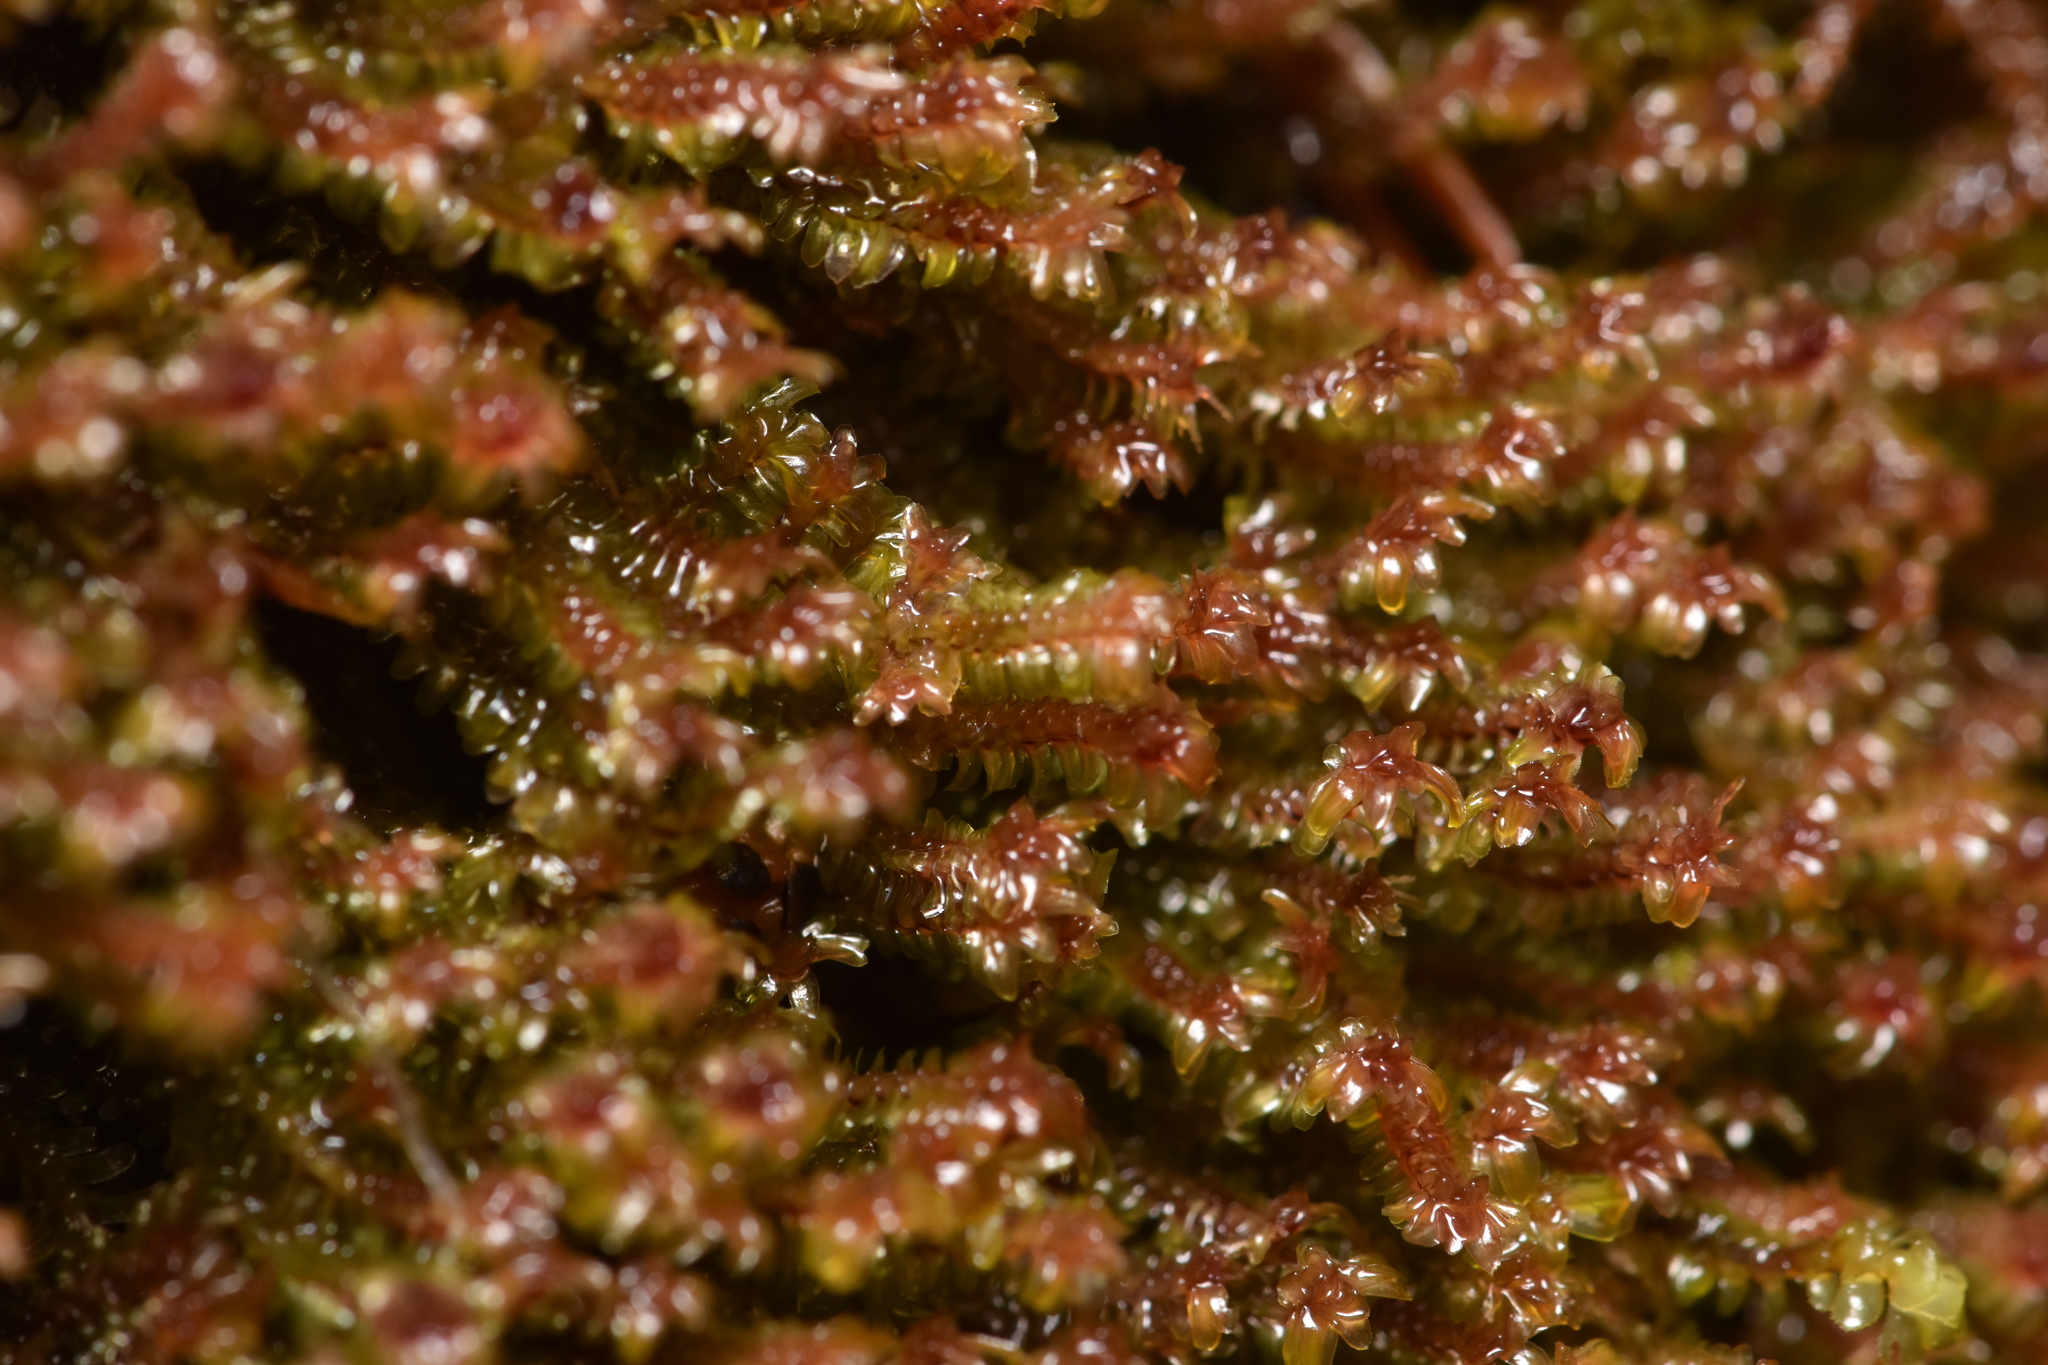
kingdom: Plantae
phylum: Marchantiophyta
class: Jungermanniopsida
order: Jungermanniales
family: Scapaniaceae
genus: Diplophyllum
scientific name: Diplophyllum albicans
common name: White earwort
